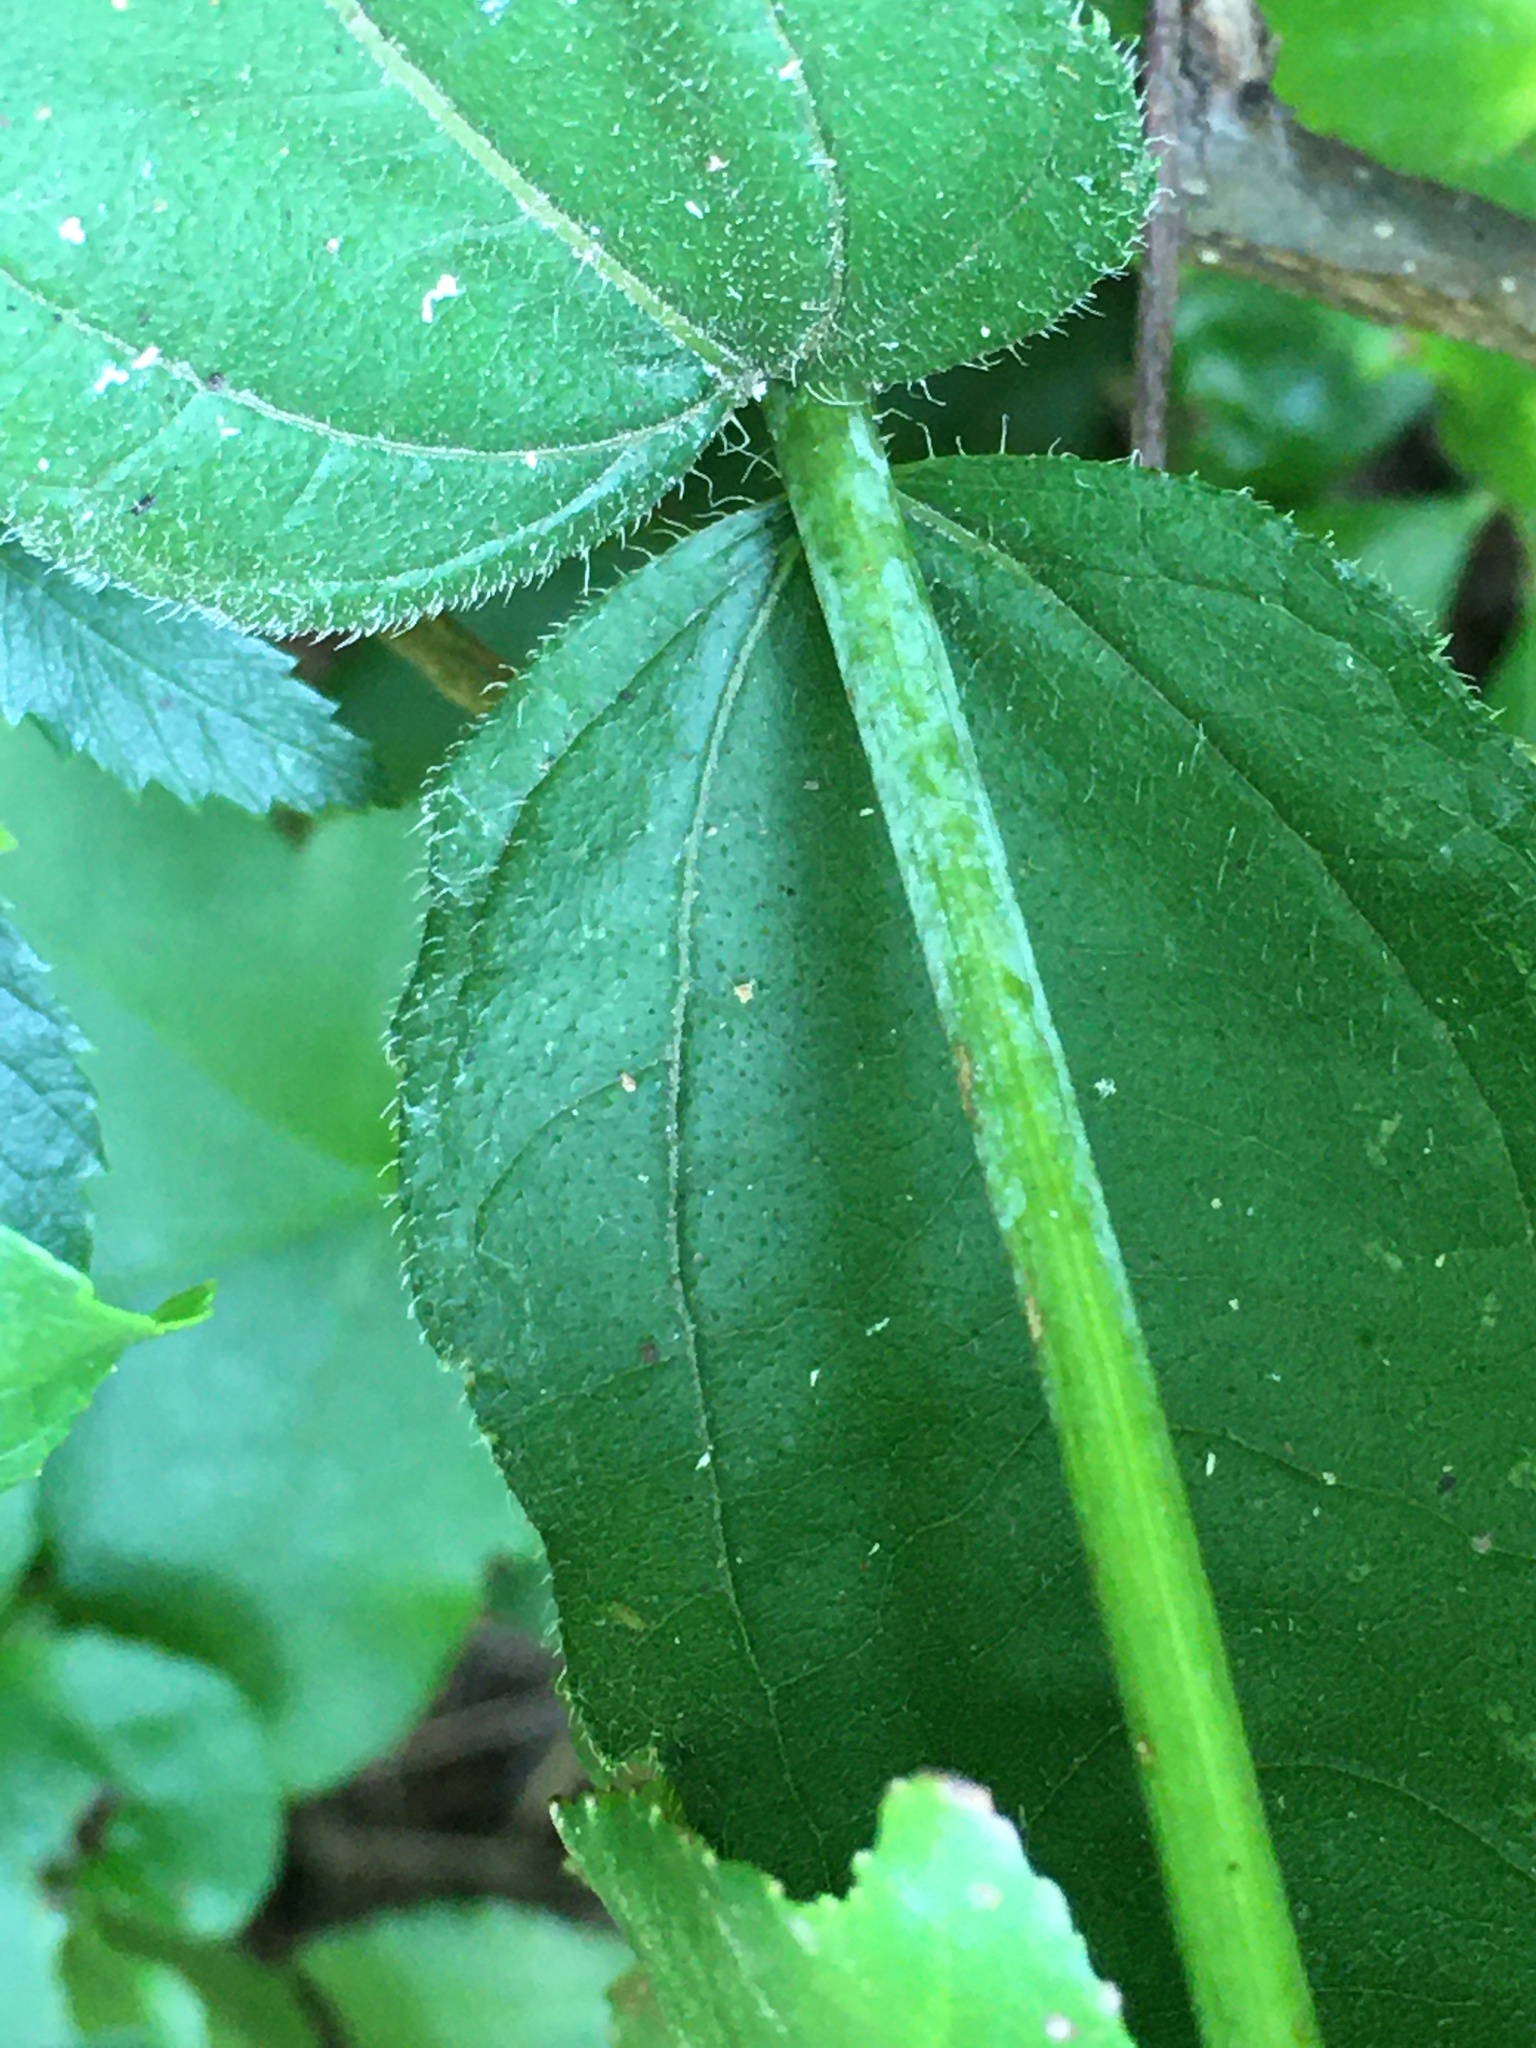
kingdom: Plantae
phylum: Tracheophyta
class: Magnoliopsida
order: Asterales
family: Asteraceae
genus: Helianthus
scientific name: Helianthus divaricatus
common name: Divergent sunflower
